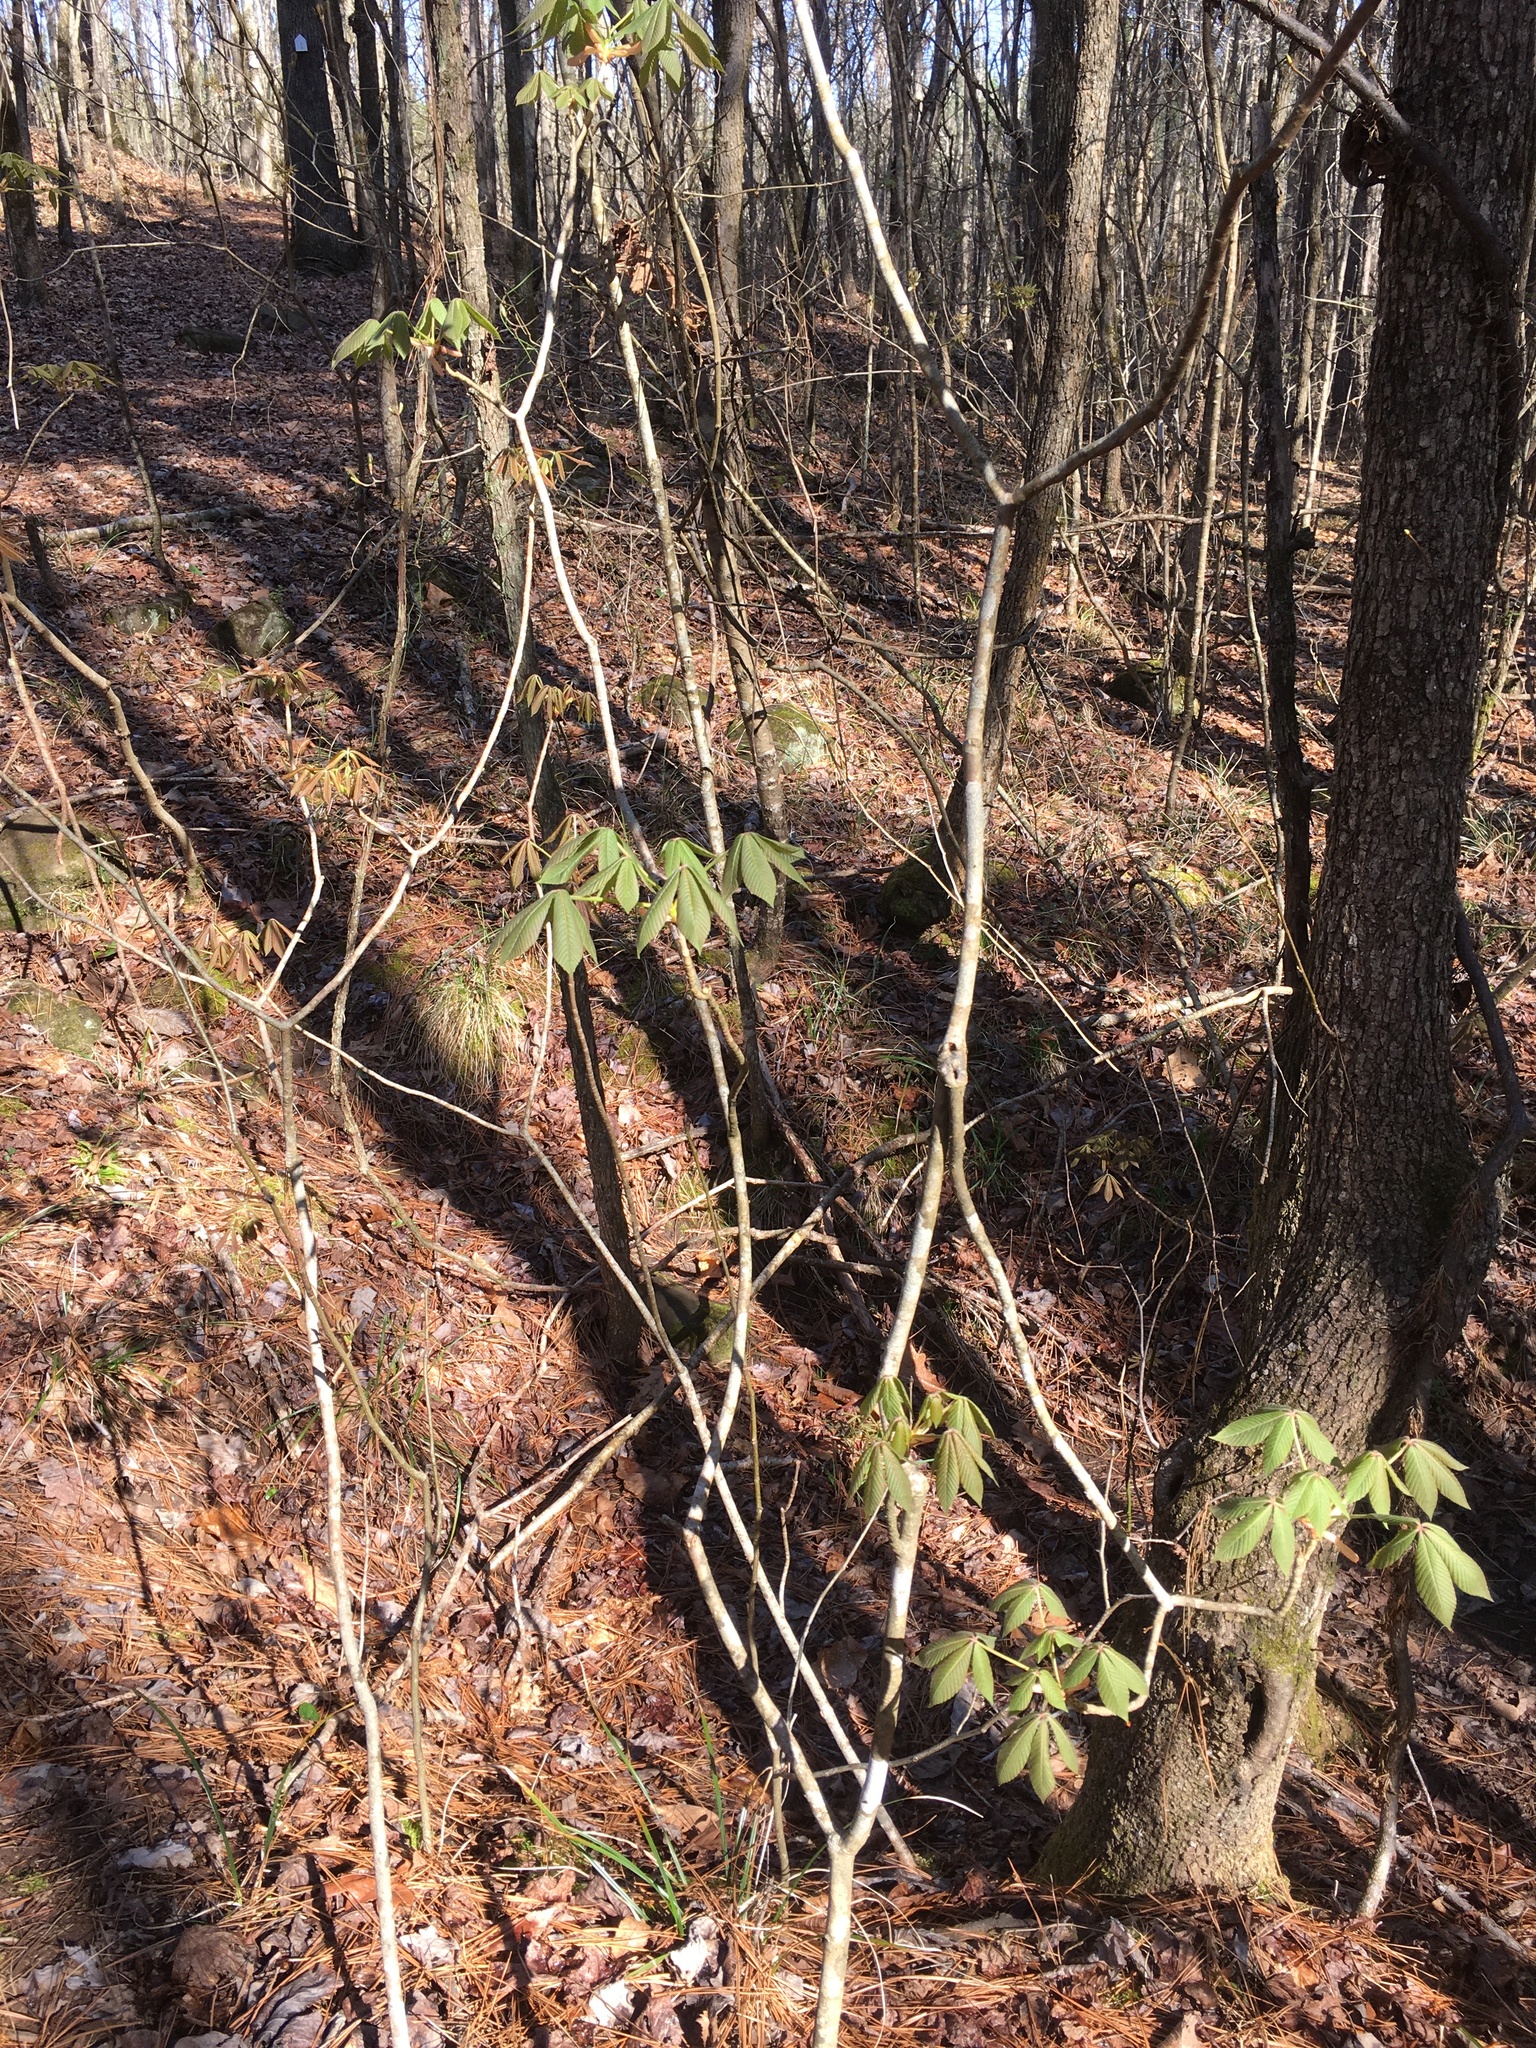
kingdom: Plantae
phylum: Tracheophyta
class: Magnoliopsida
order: Sapindales
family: Sapindaceae
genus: Aesculus
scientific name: Aesculus sylvatica
